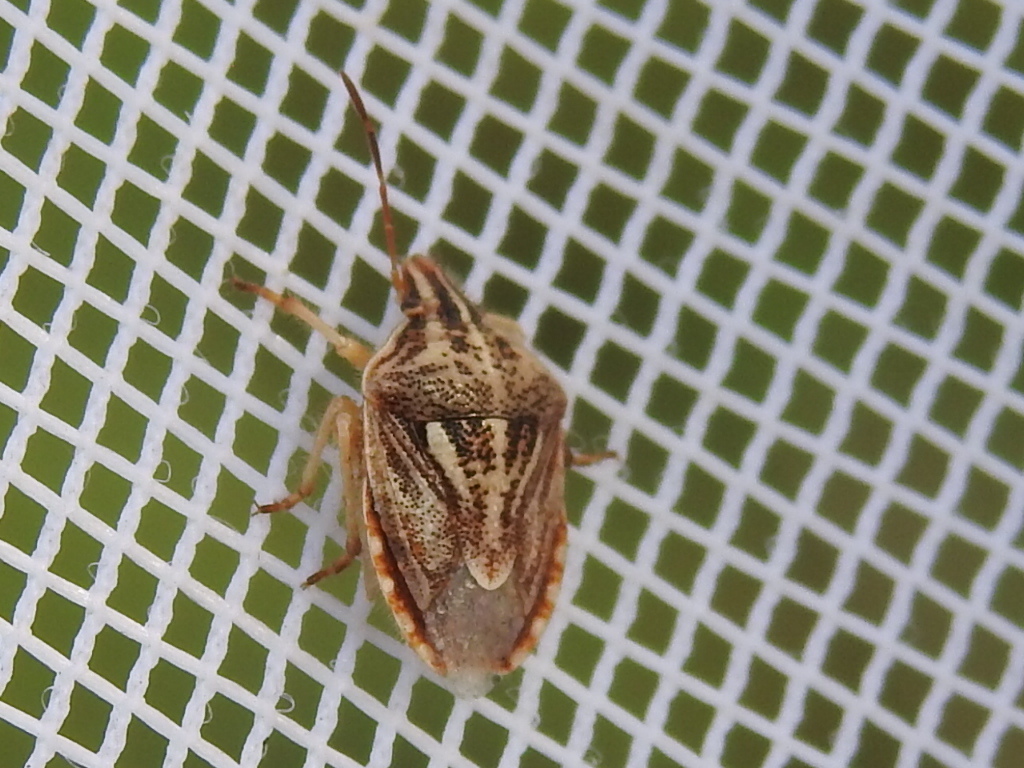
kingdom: Animalia
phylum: Arthropoda
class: Insecta
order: Hemiptera
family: Pentatomidae
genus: Trichopepla
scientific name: Trichopepla semivittata
